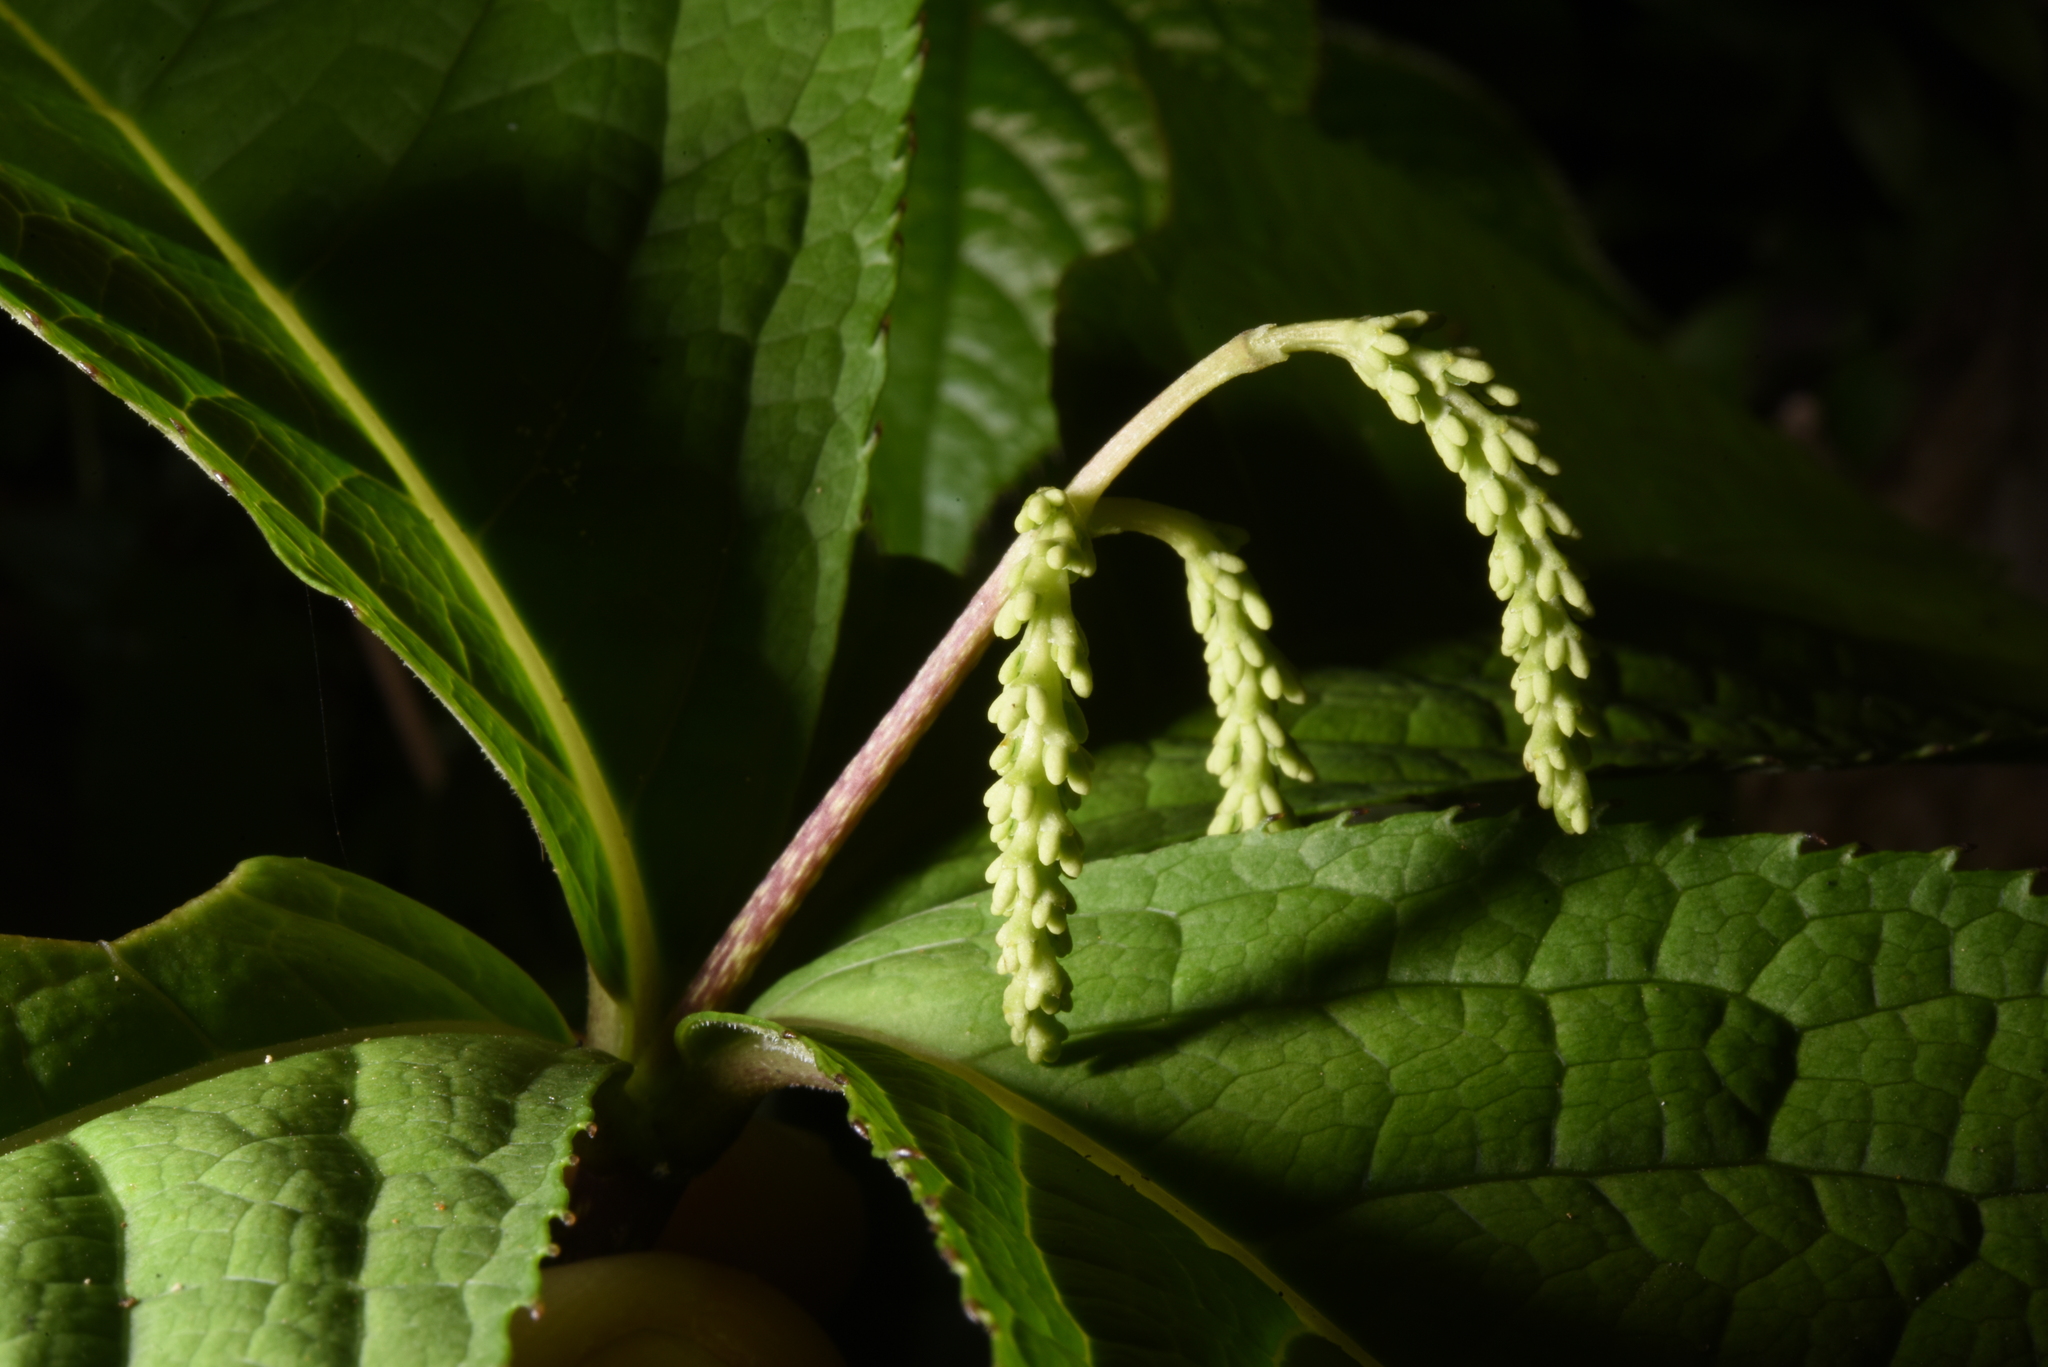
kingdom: Plantae
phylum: Tracheophyta
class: Magnoliopsida
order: Chloranthales
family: Chloranthaceae
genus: Chloranthus
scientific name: Chloranthus oldhamii
